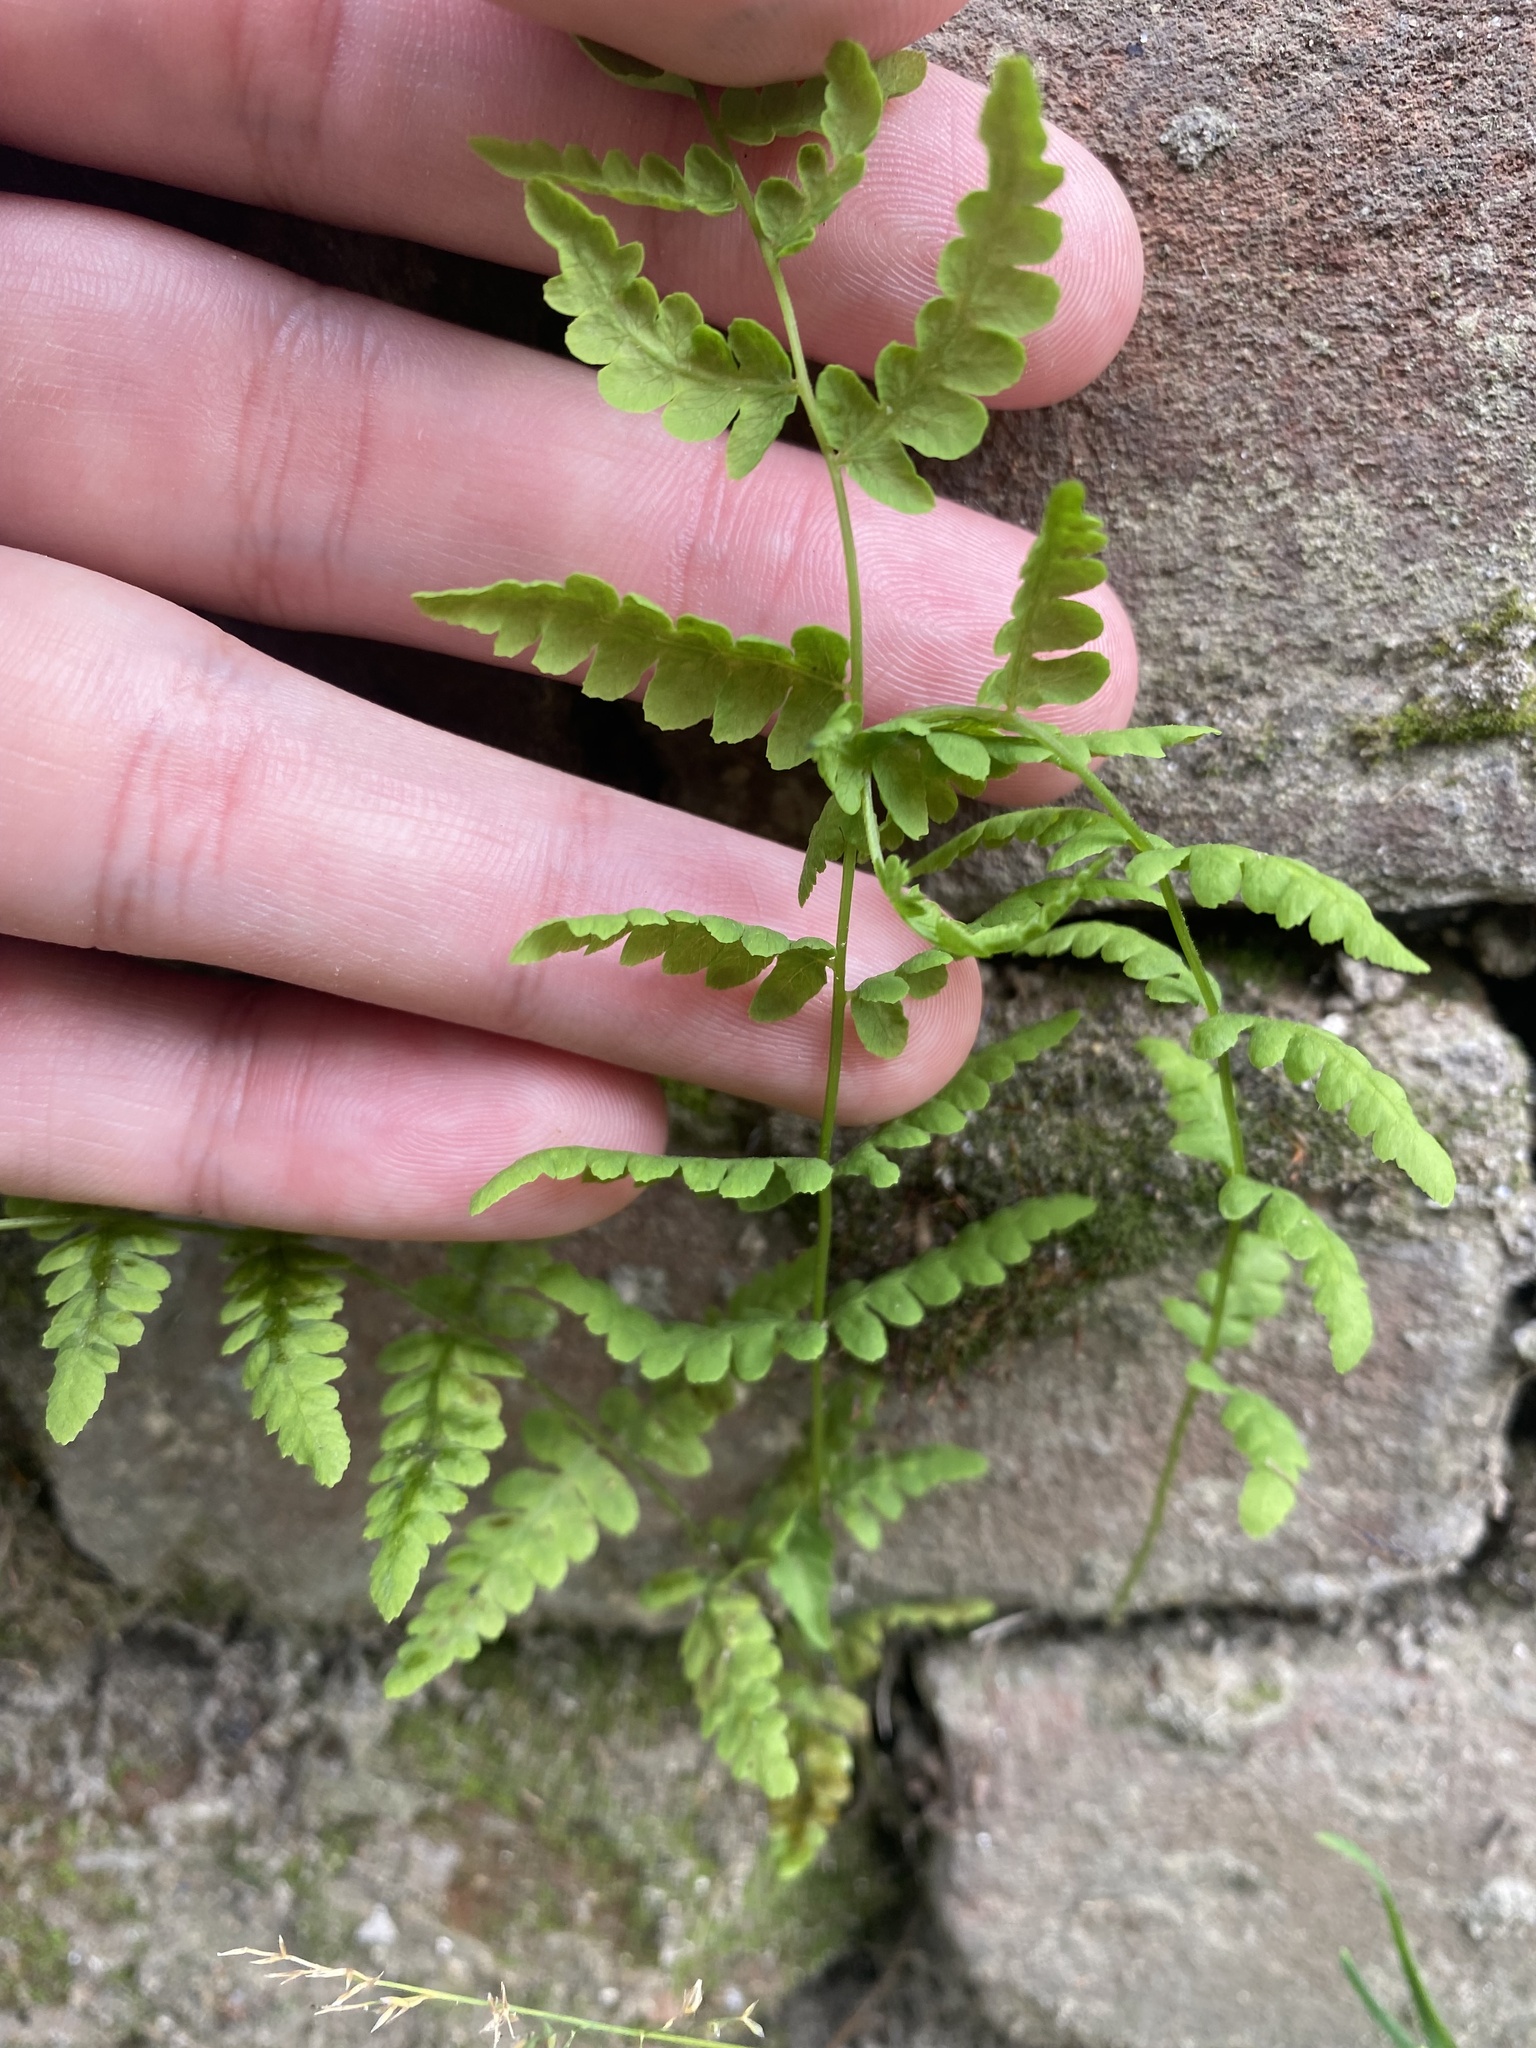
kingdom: Plantae
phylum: Tracheophyta
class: Polypodiopsida
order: Polypodiales
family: Thelypteridaceae
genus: Thelypteris
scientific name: Thelypteris palustris
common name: Marsh fern
